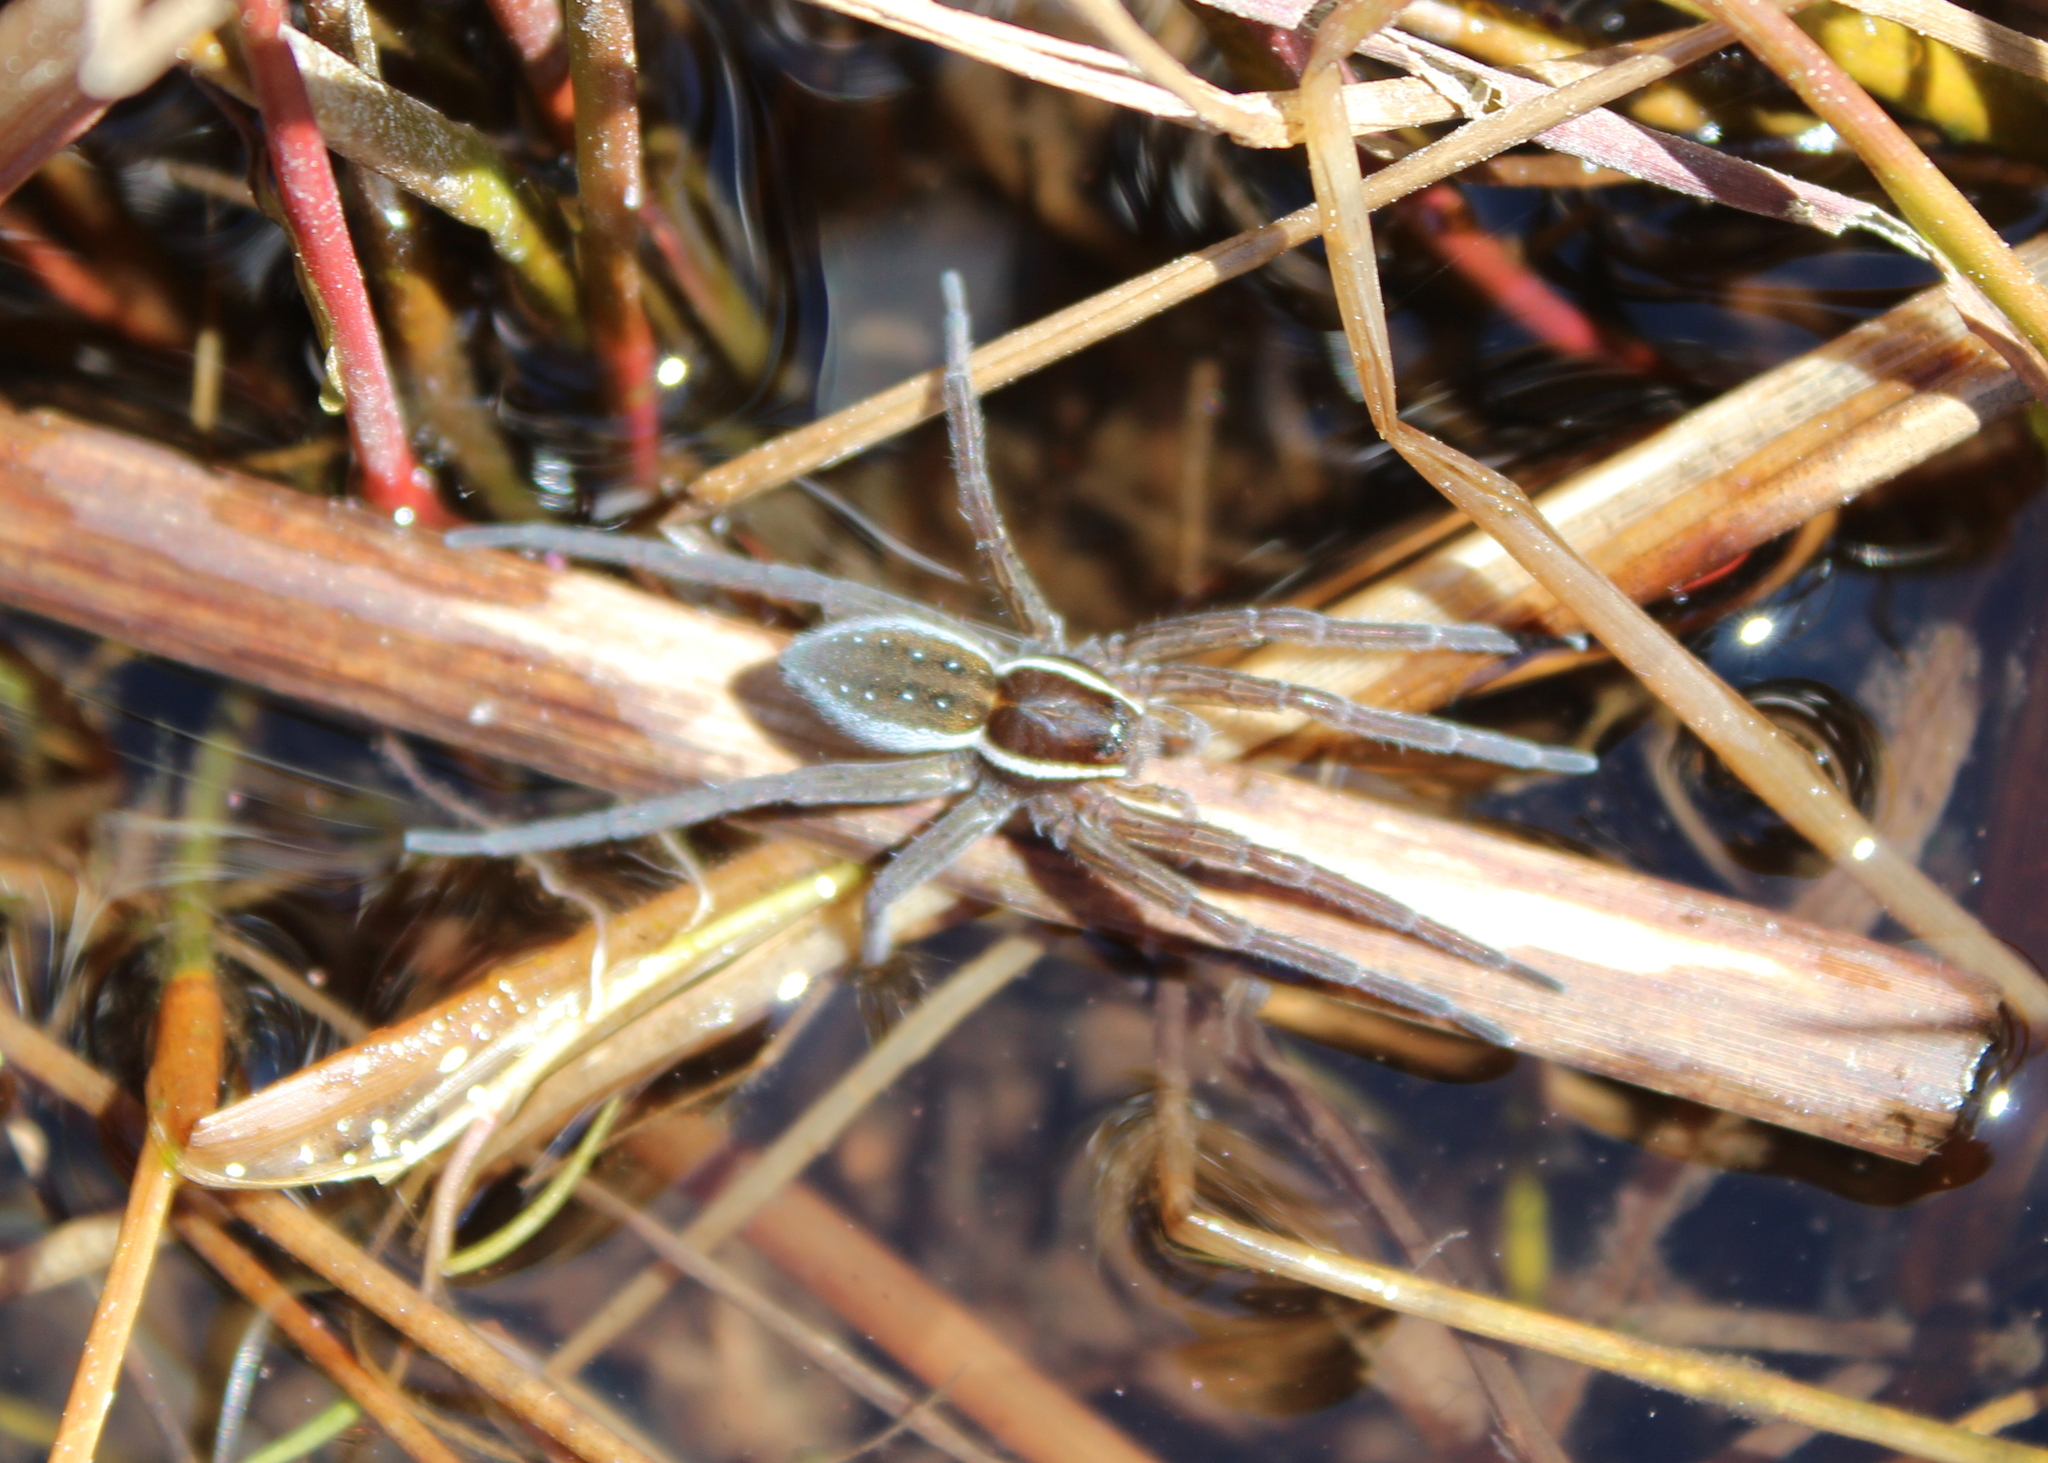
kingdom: Animalia
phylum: Arthropoda
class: Arachnida
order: Araneae
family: Pisauridae
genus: Dolomedes
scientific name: Dolomedes triton
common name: Six-spotted fishing spider
